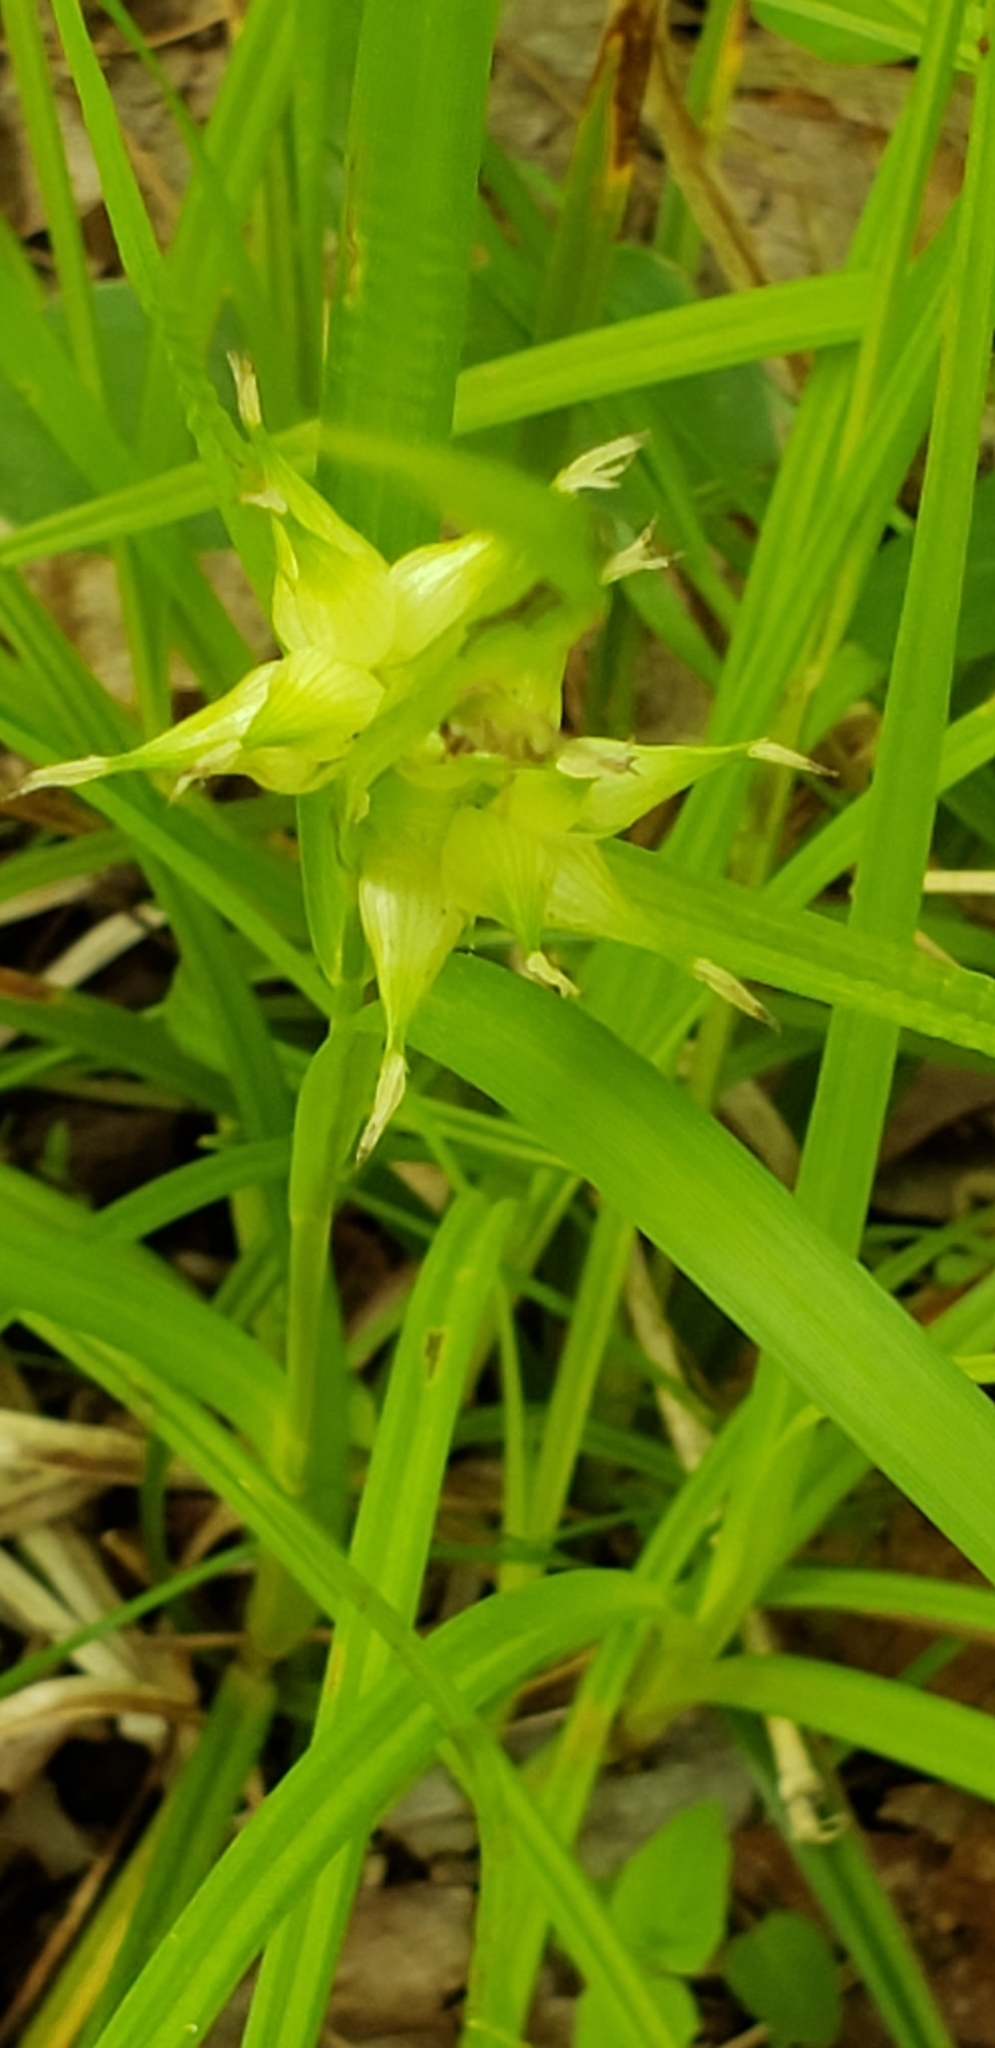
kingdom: Plantae
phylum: Tracheophyta
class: Liliopsida
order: Poales
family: Cyperaceae
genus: Carex
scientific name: Carex intumescens
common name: Greater bladder sedge
